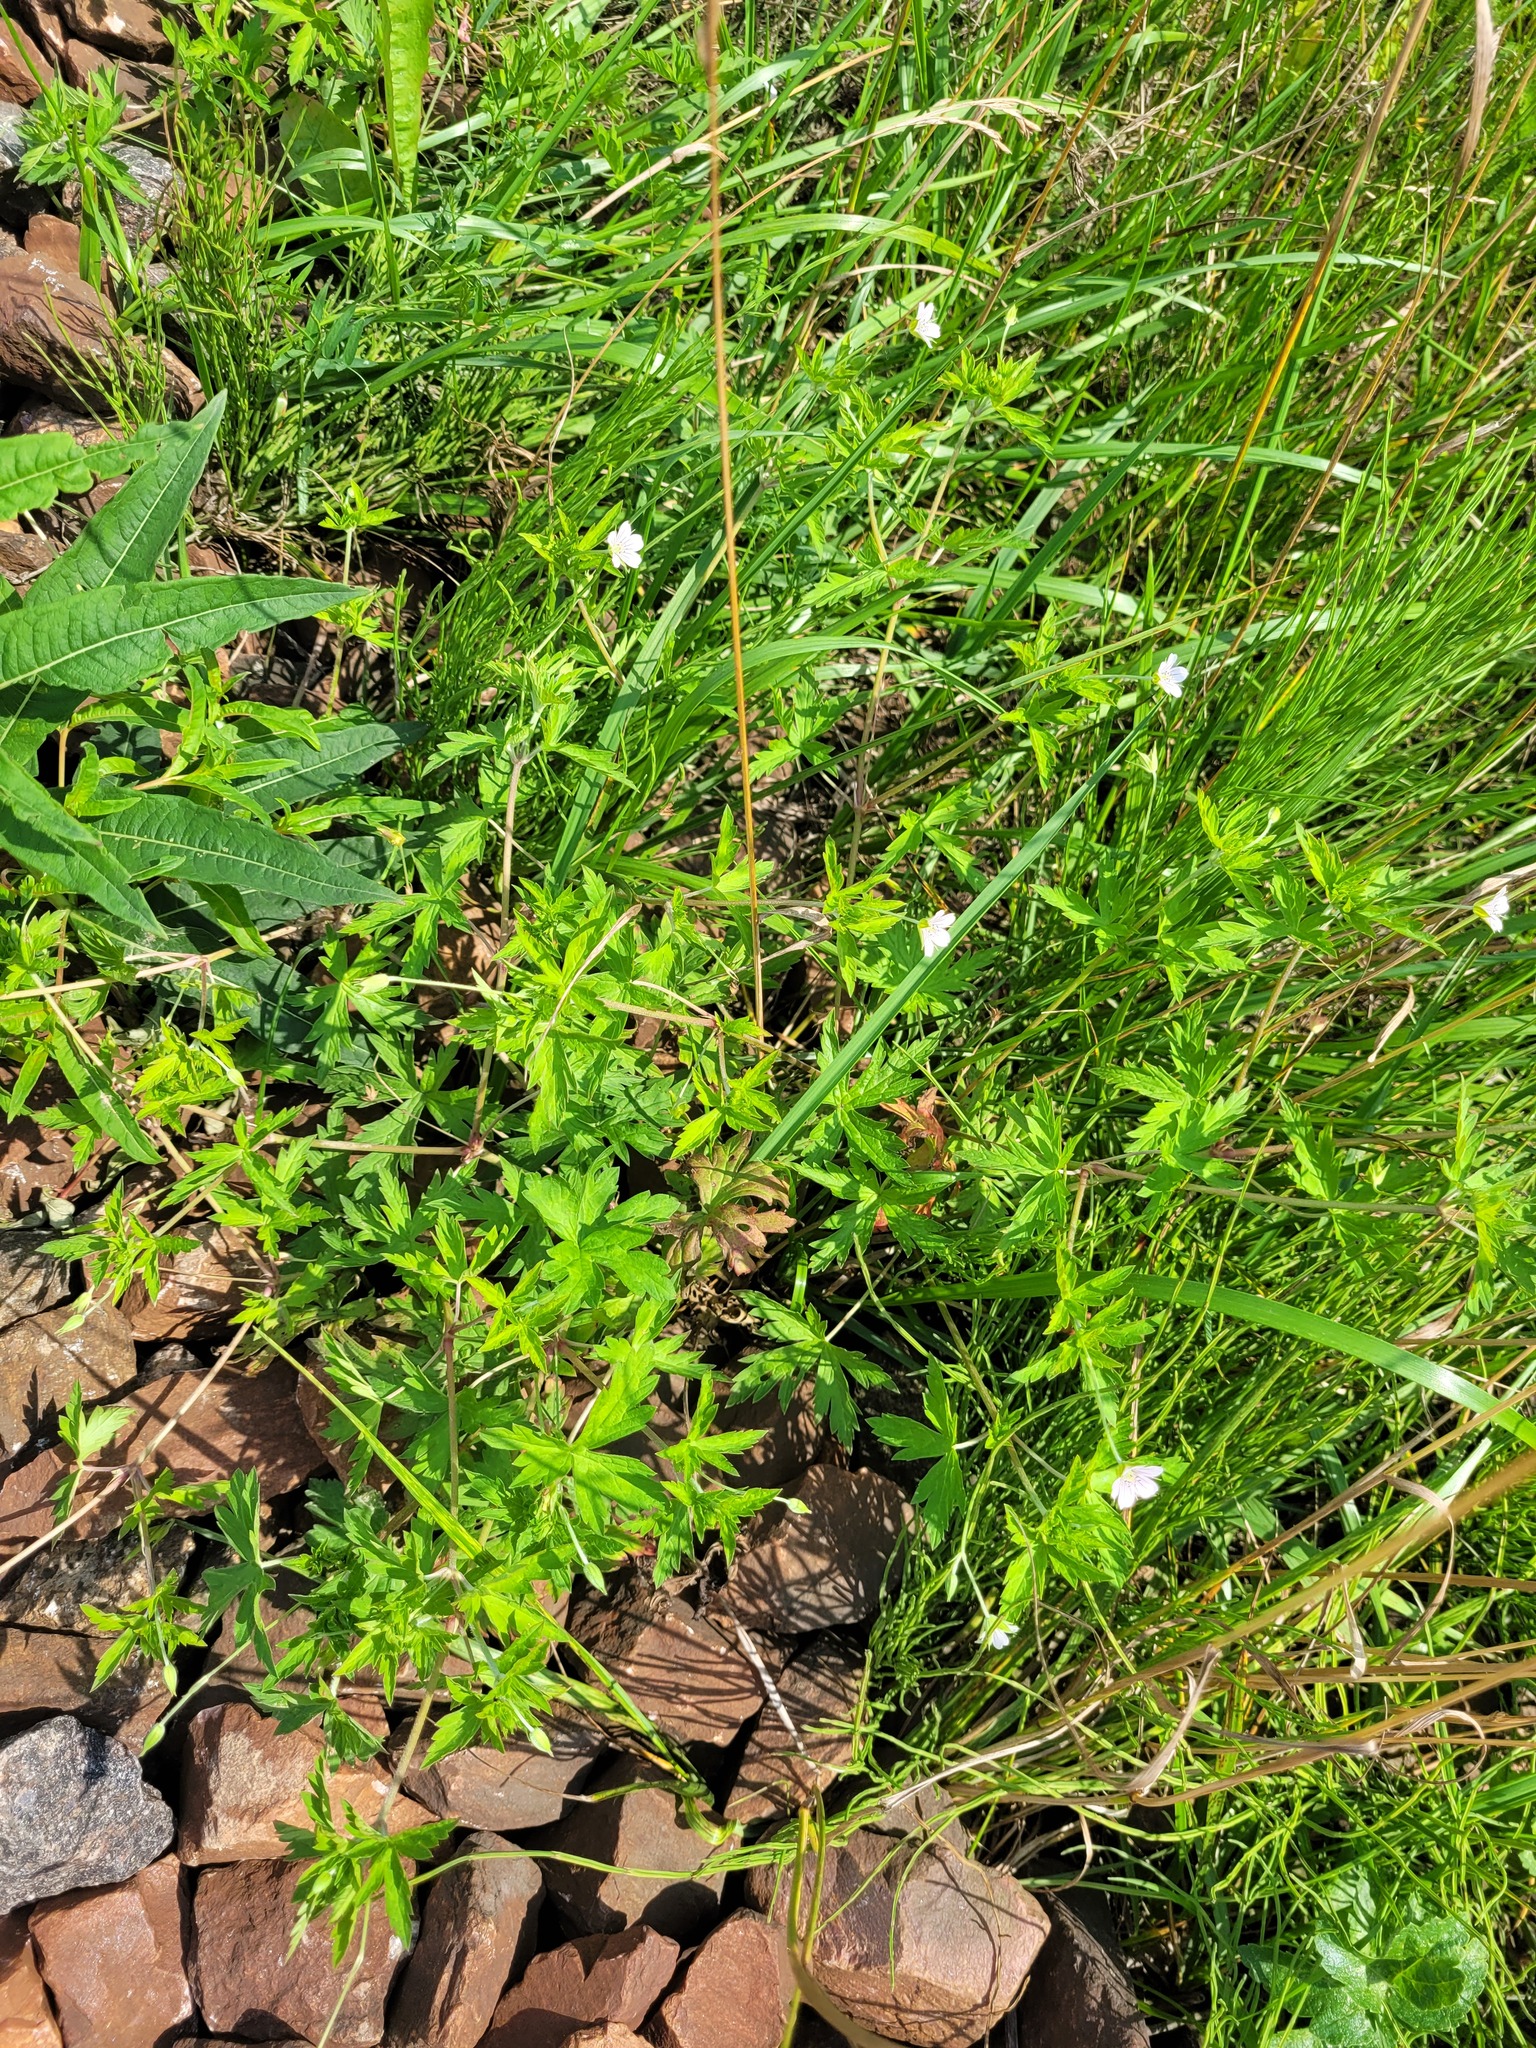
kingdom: Plantae
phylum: Tracheophyta
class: Magnoliopsida
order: Geraniales
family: Geraniaceae
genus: Geranium
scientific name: Geranium sibiricum
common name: Siberian crane's-bill
